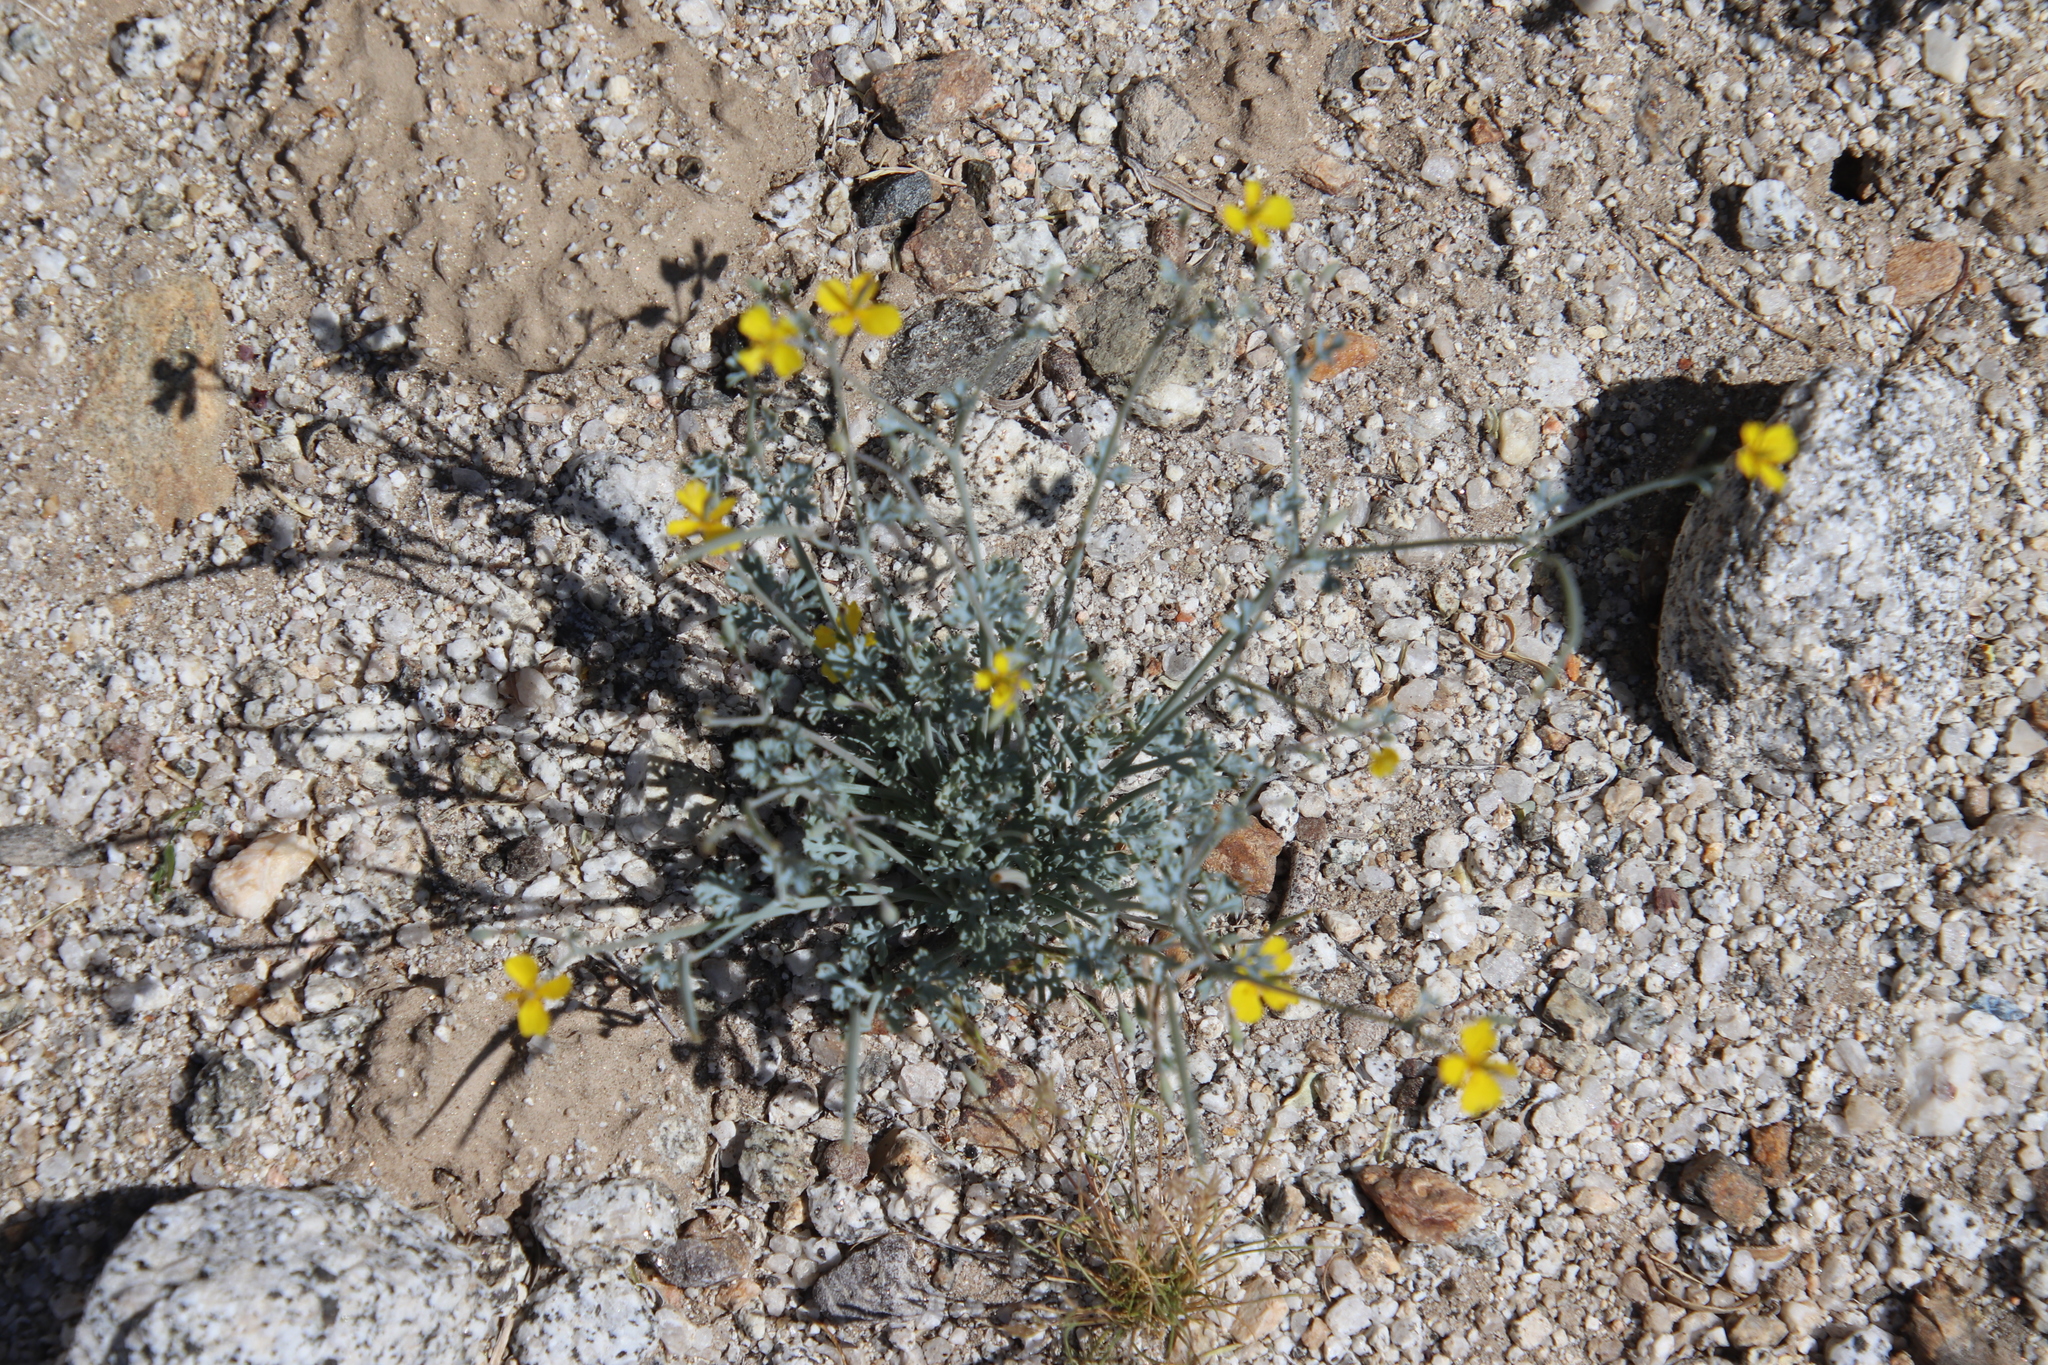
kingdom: Plantae
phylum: Tracheophyta
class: Magnoliopsida
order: Ranunculales
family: Papaveraceae
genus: Eschscholzia
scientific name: Eschscholzia minutiflora
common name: Small-flower california-poppy
